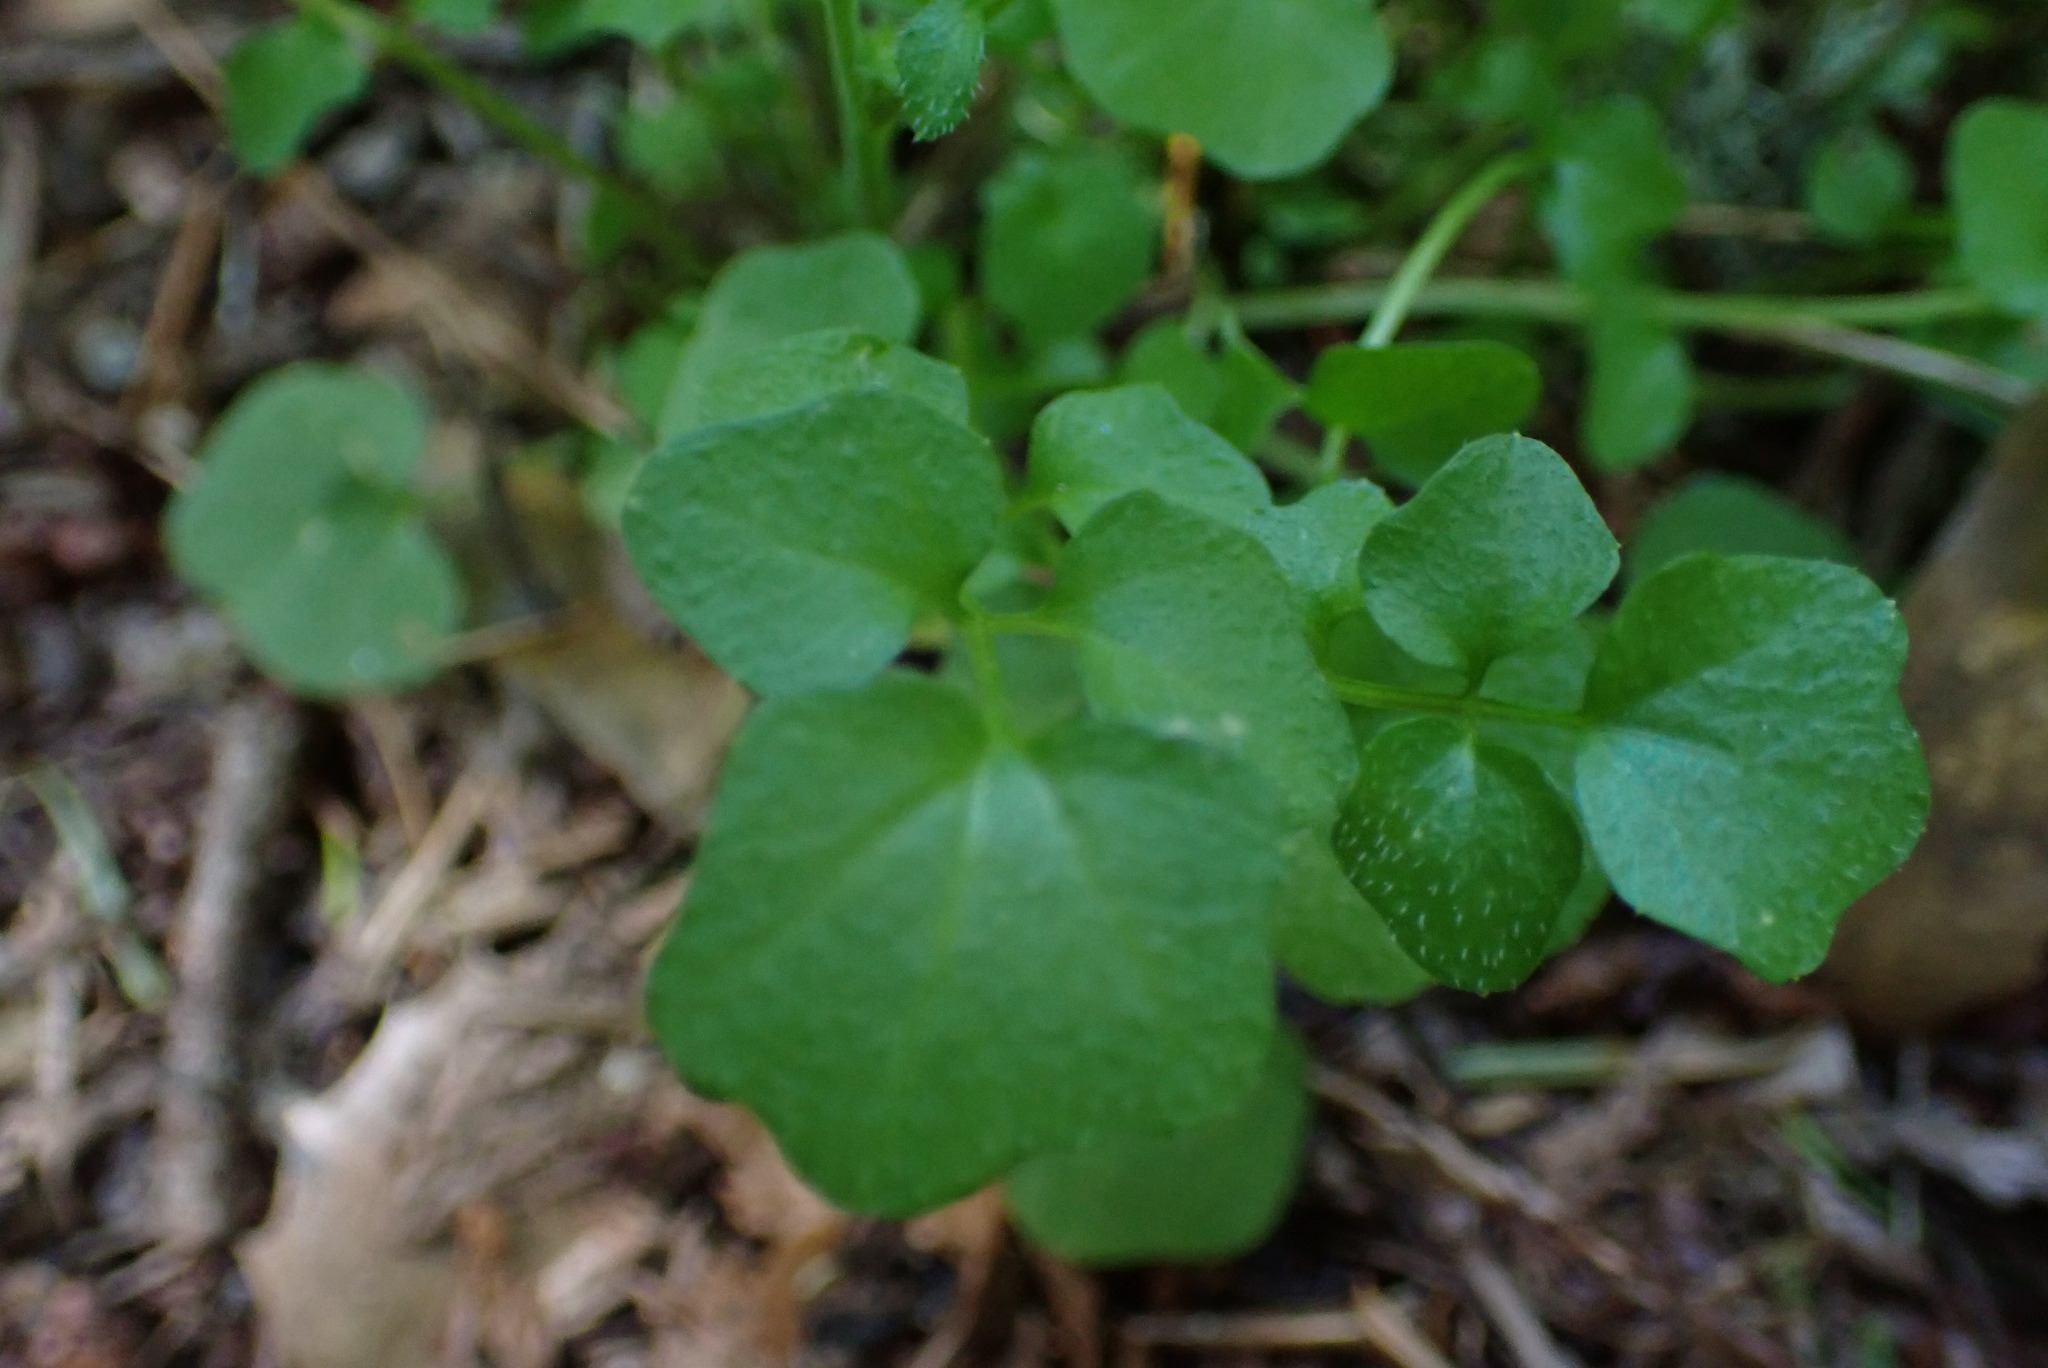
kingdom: Plantae
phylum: Tracheophyta
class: Magnoliopsida
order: Brassicales
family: Brassicaceae
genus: Cardamine
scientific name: Cardamine oligosperma
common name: Idaho bittercress
